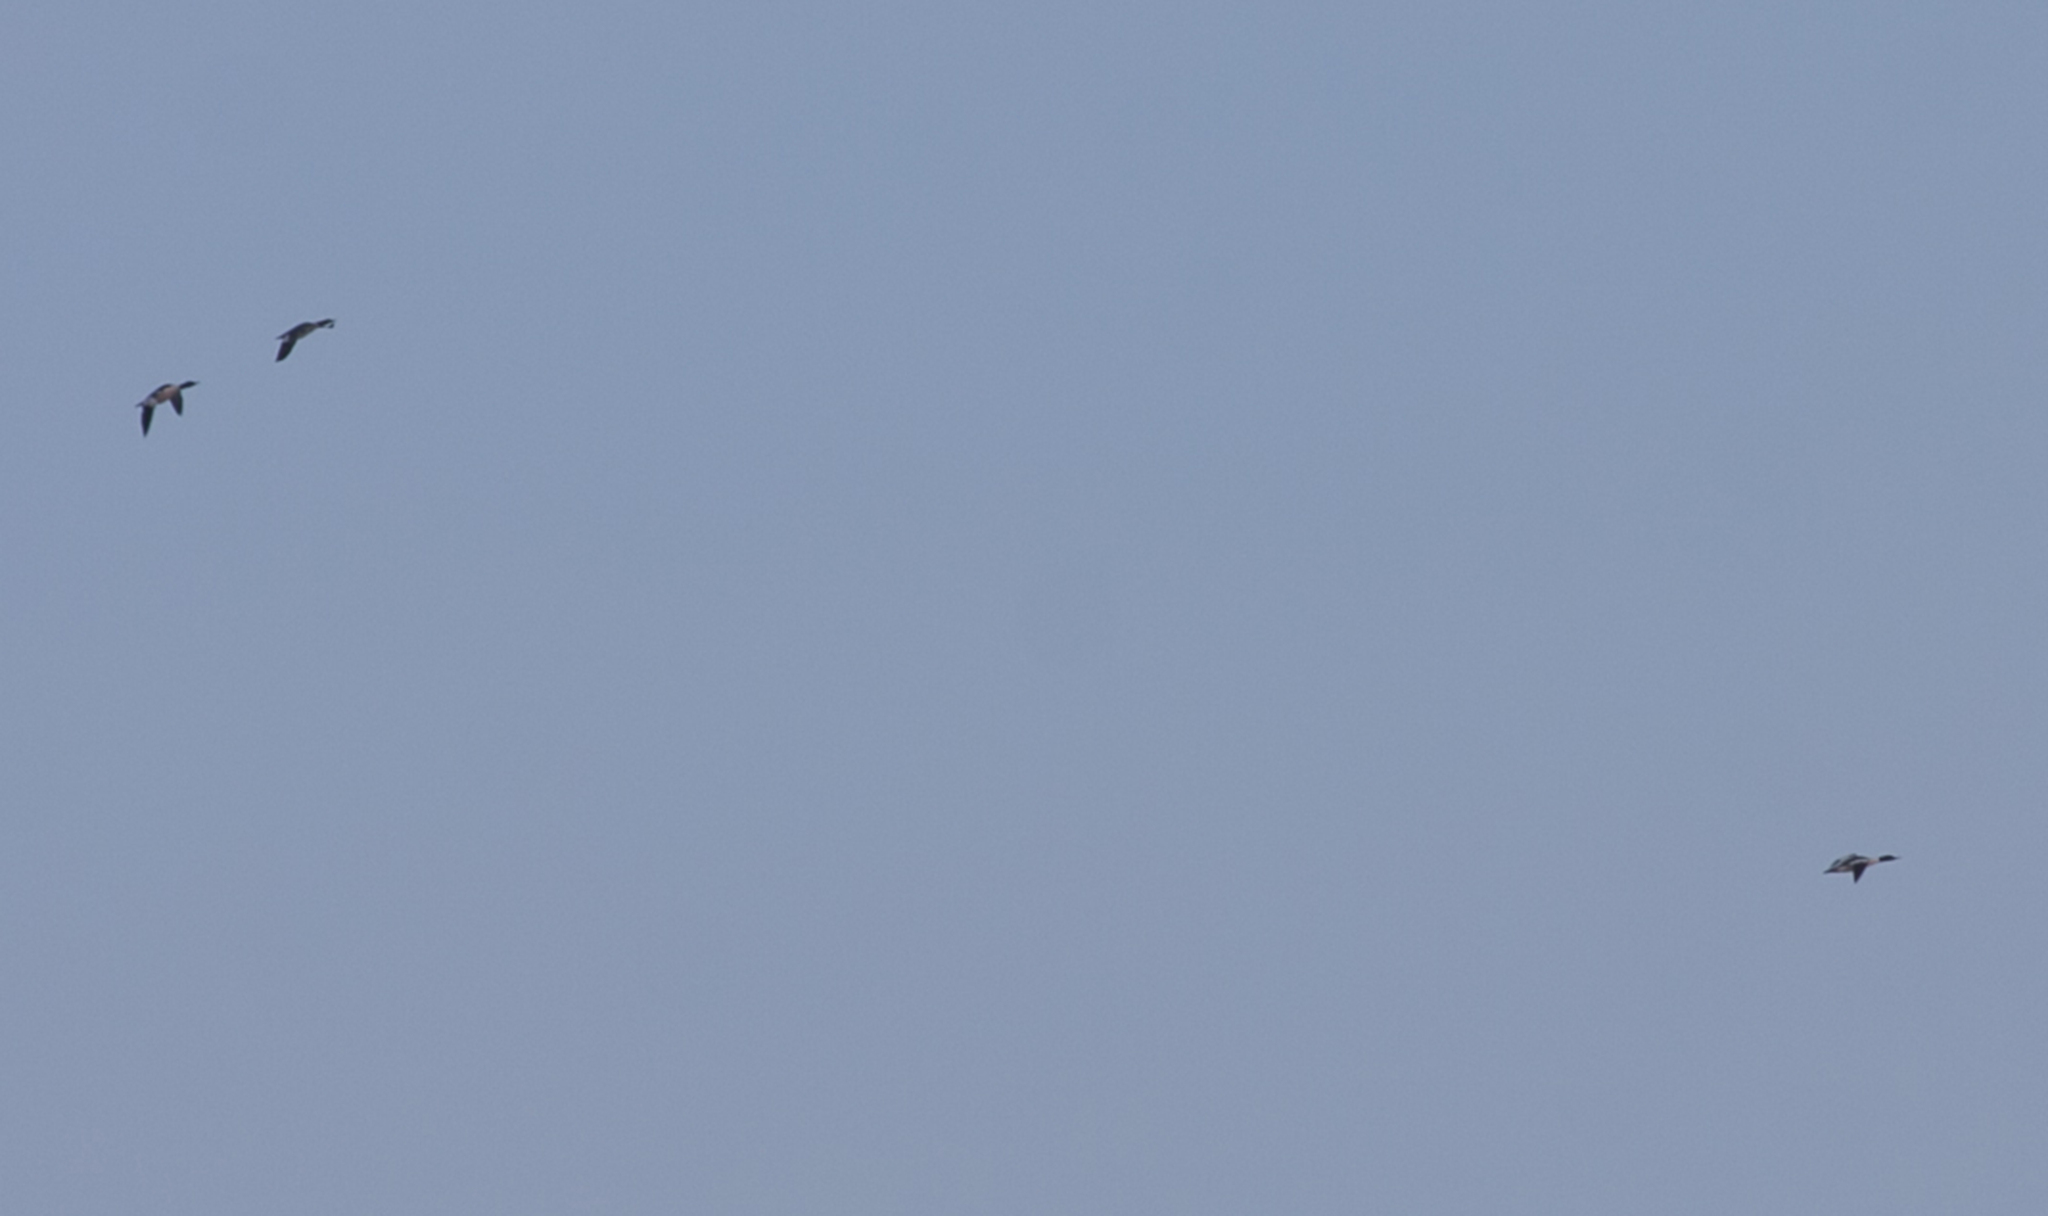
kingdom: Animalia
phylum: Chordata
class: Aves
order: Anseriformes
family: Anatidae
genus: Mergus
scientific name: Mergus merganser
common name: Common merganser
